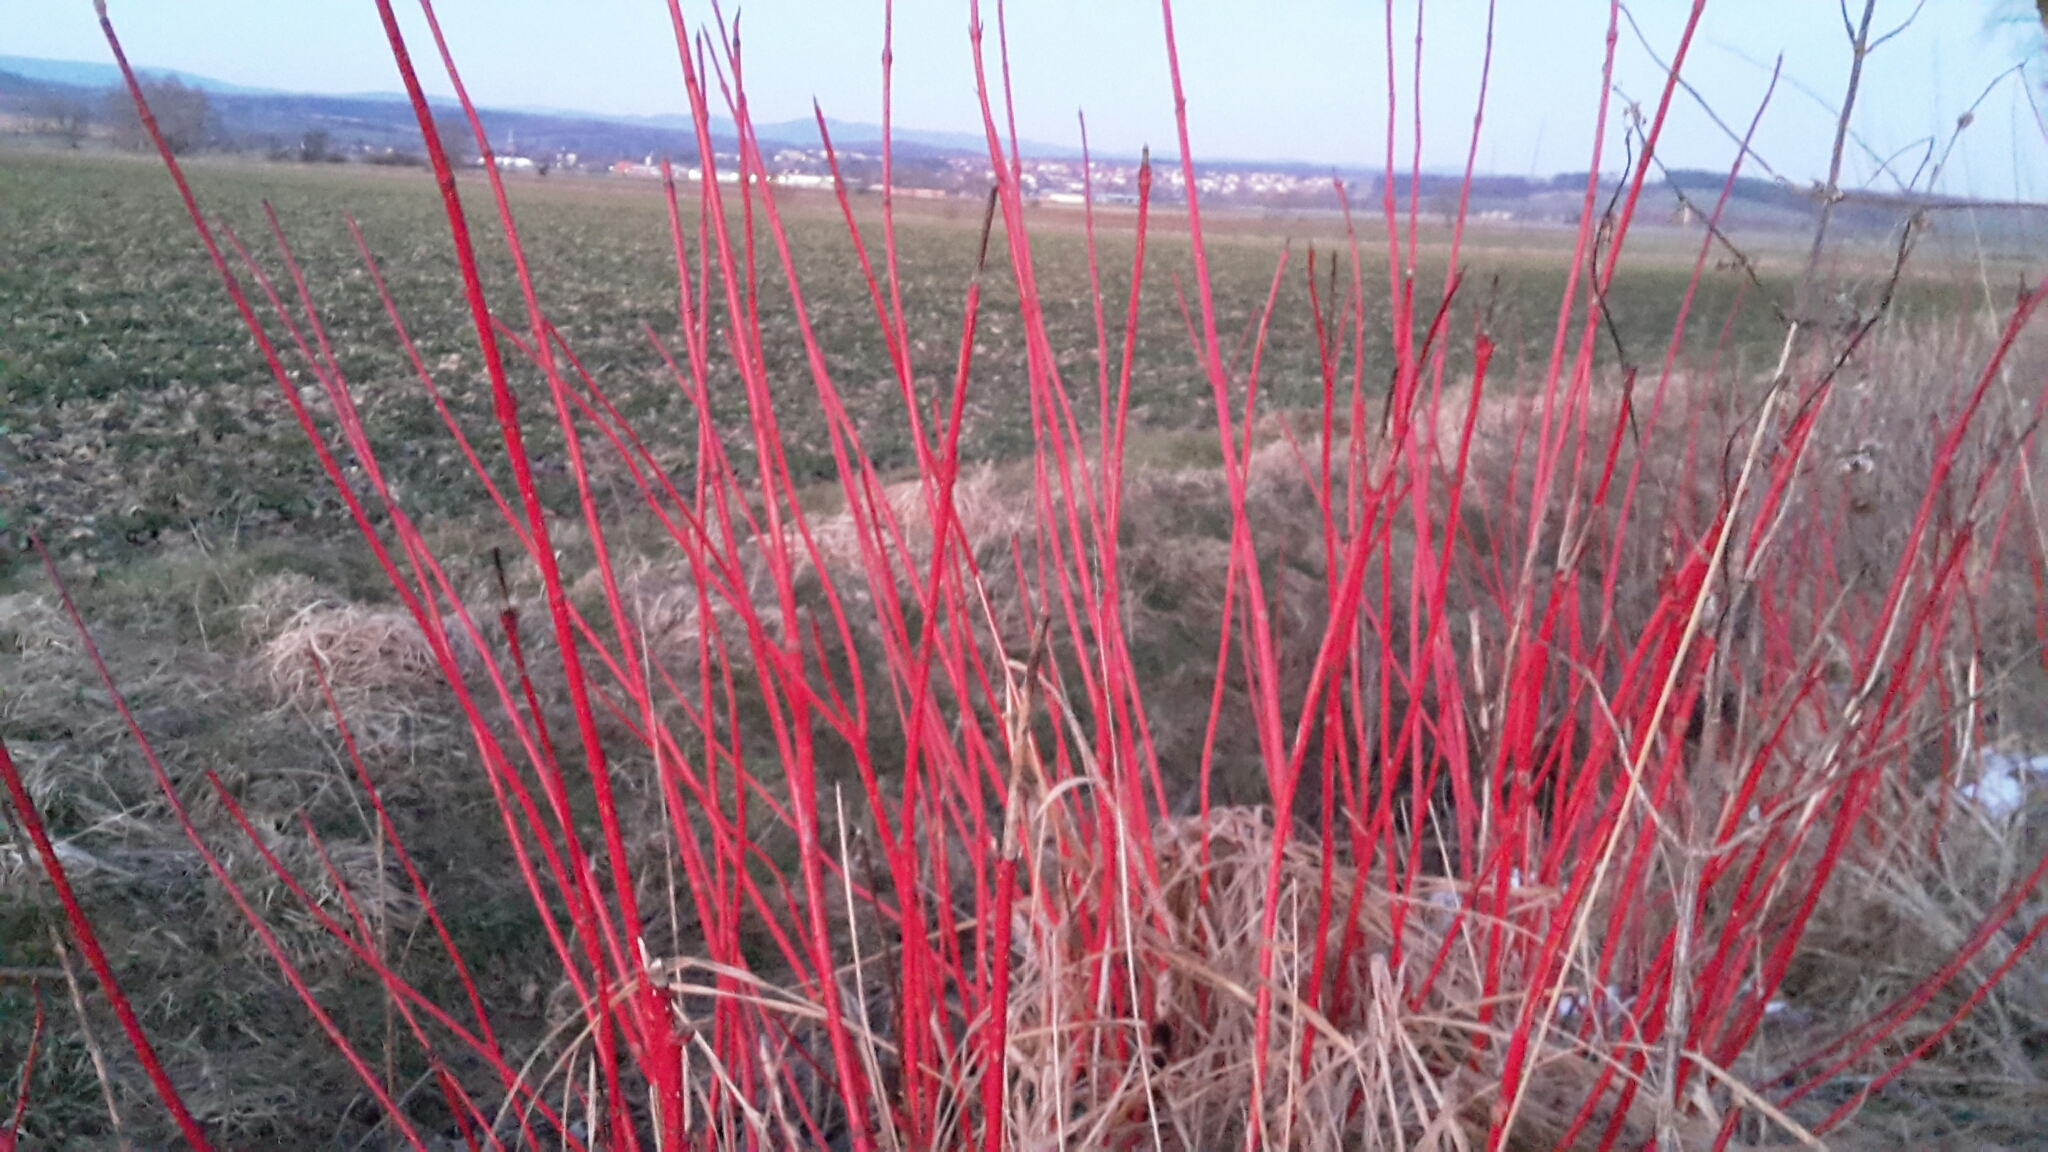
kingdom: Plantae
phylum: Tracheophyta
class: Magnoliopsida
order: Cornales
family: Cornaceae
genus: Cornus
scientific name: Cornus sanguinea
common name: Dogwood
